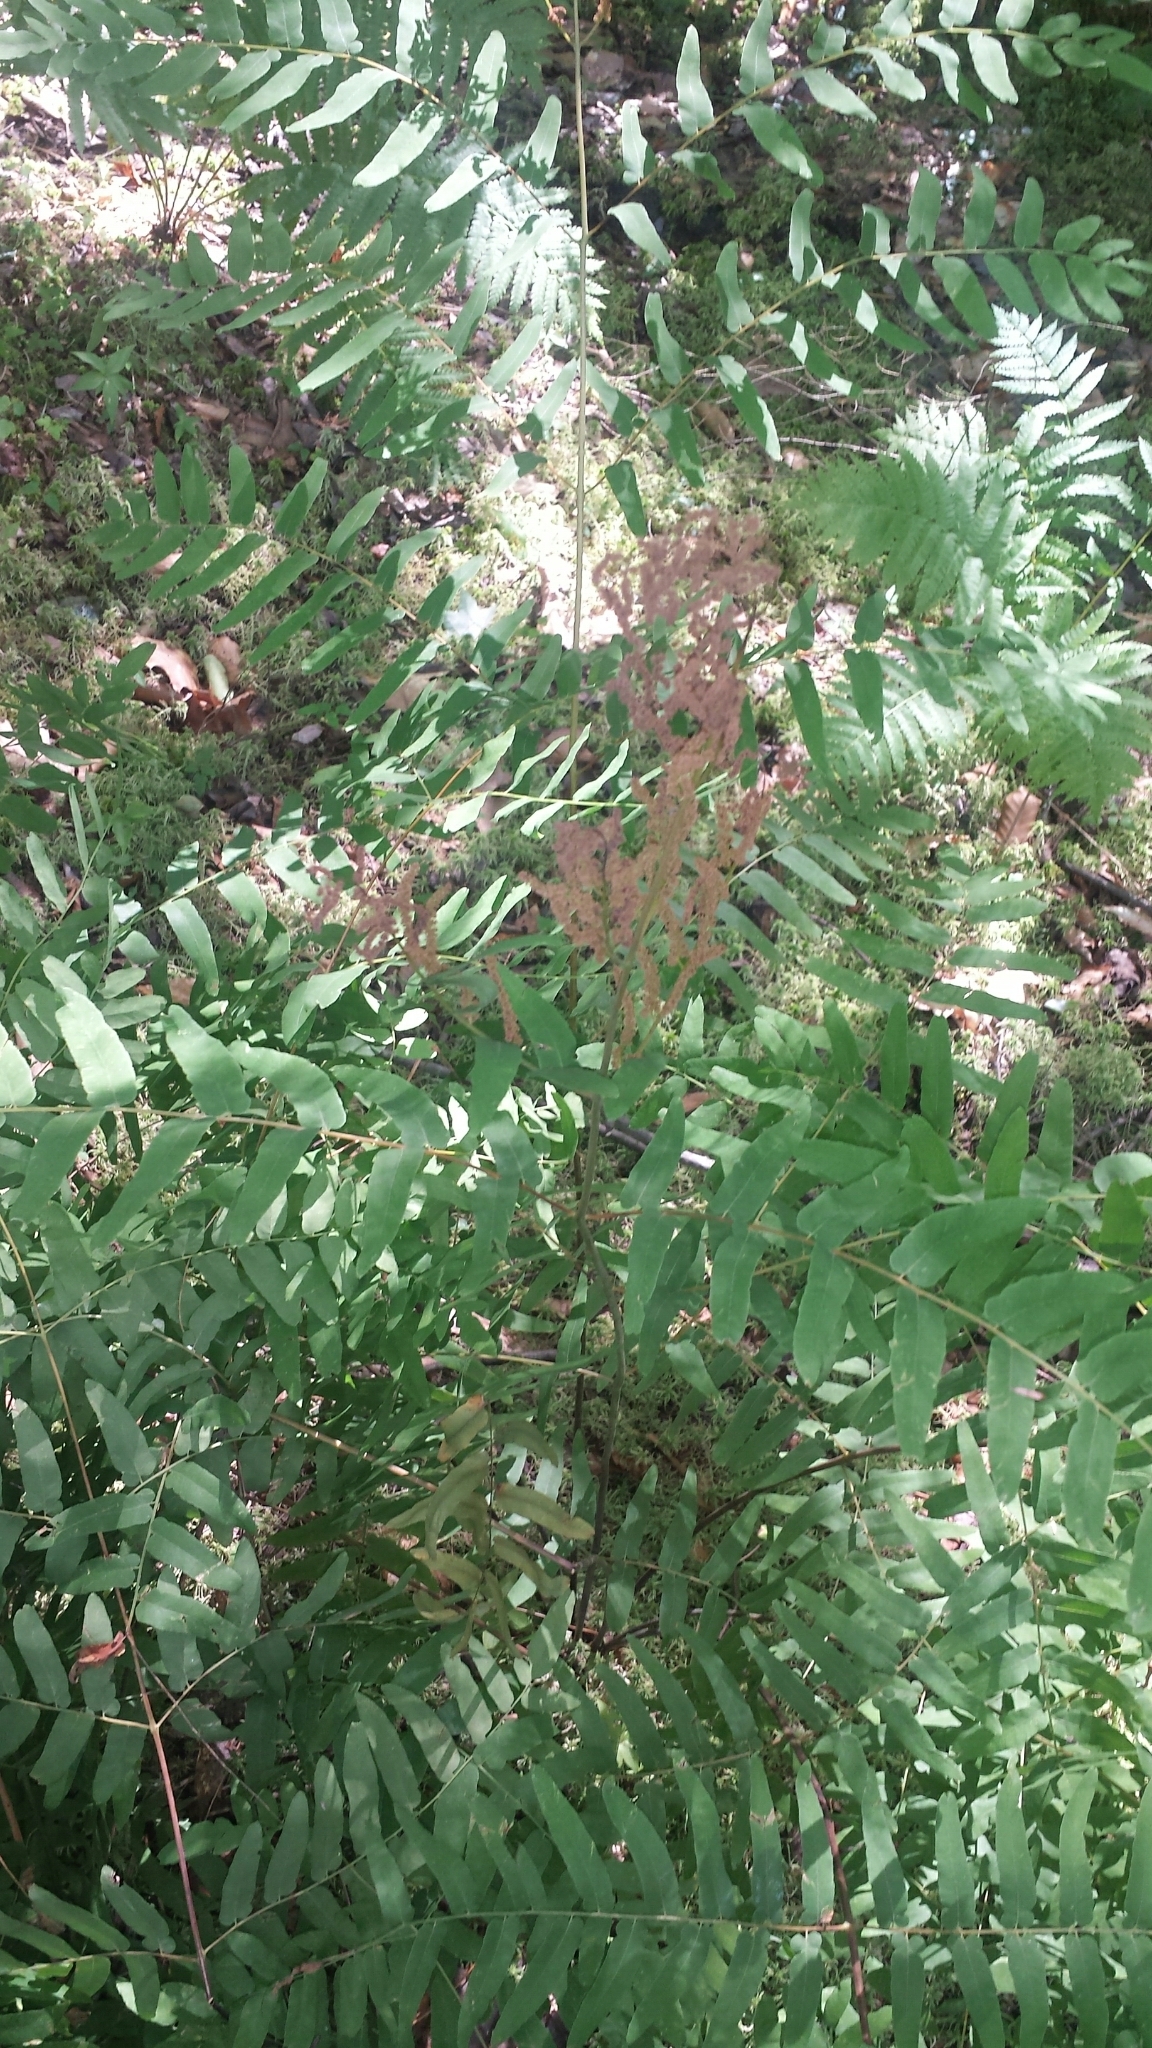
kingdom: Plantae
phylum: Tracheophyta
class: Polypodiopsida
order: Osmundales
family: Osmundaceae
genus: Osmunda
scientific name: Osmunda spectabilis
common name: American royal fern
